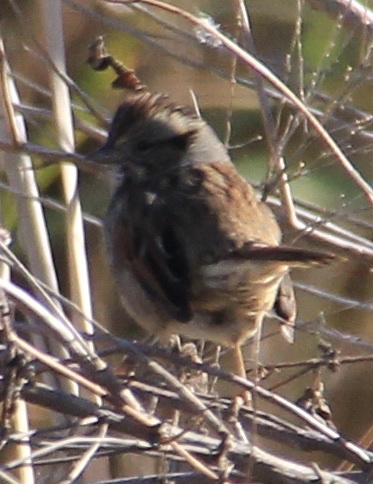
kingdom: Animalia
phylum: Chordata
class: Aves
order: Passeriformes
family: Passerellidae
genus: Melospiza
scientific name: Melospiza georgiana
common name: Swamp sparrow
